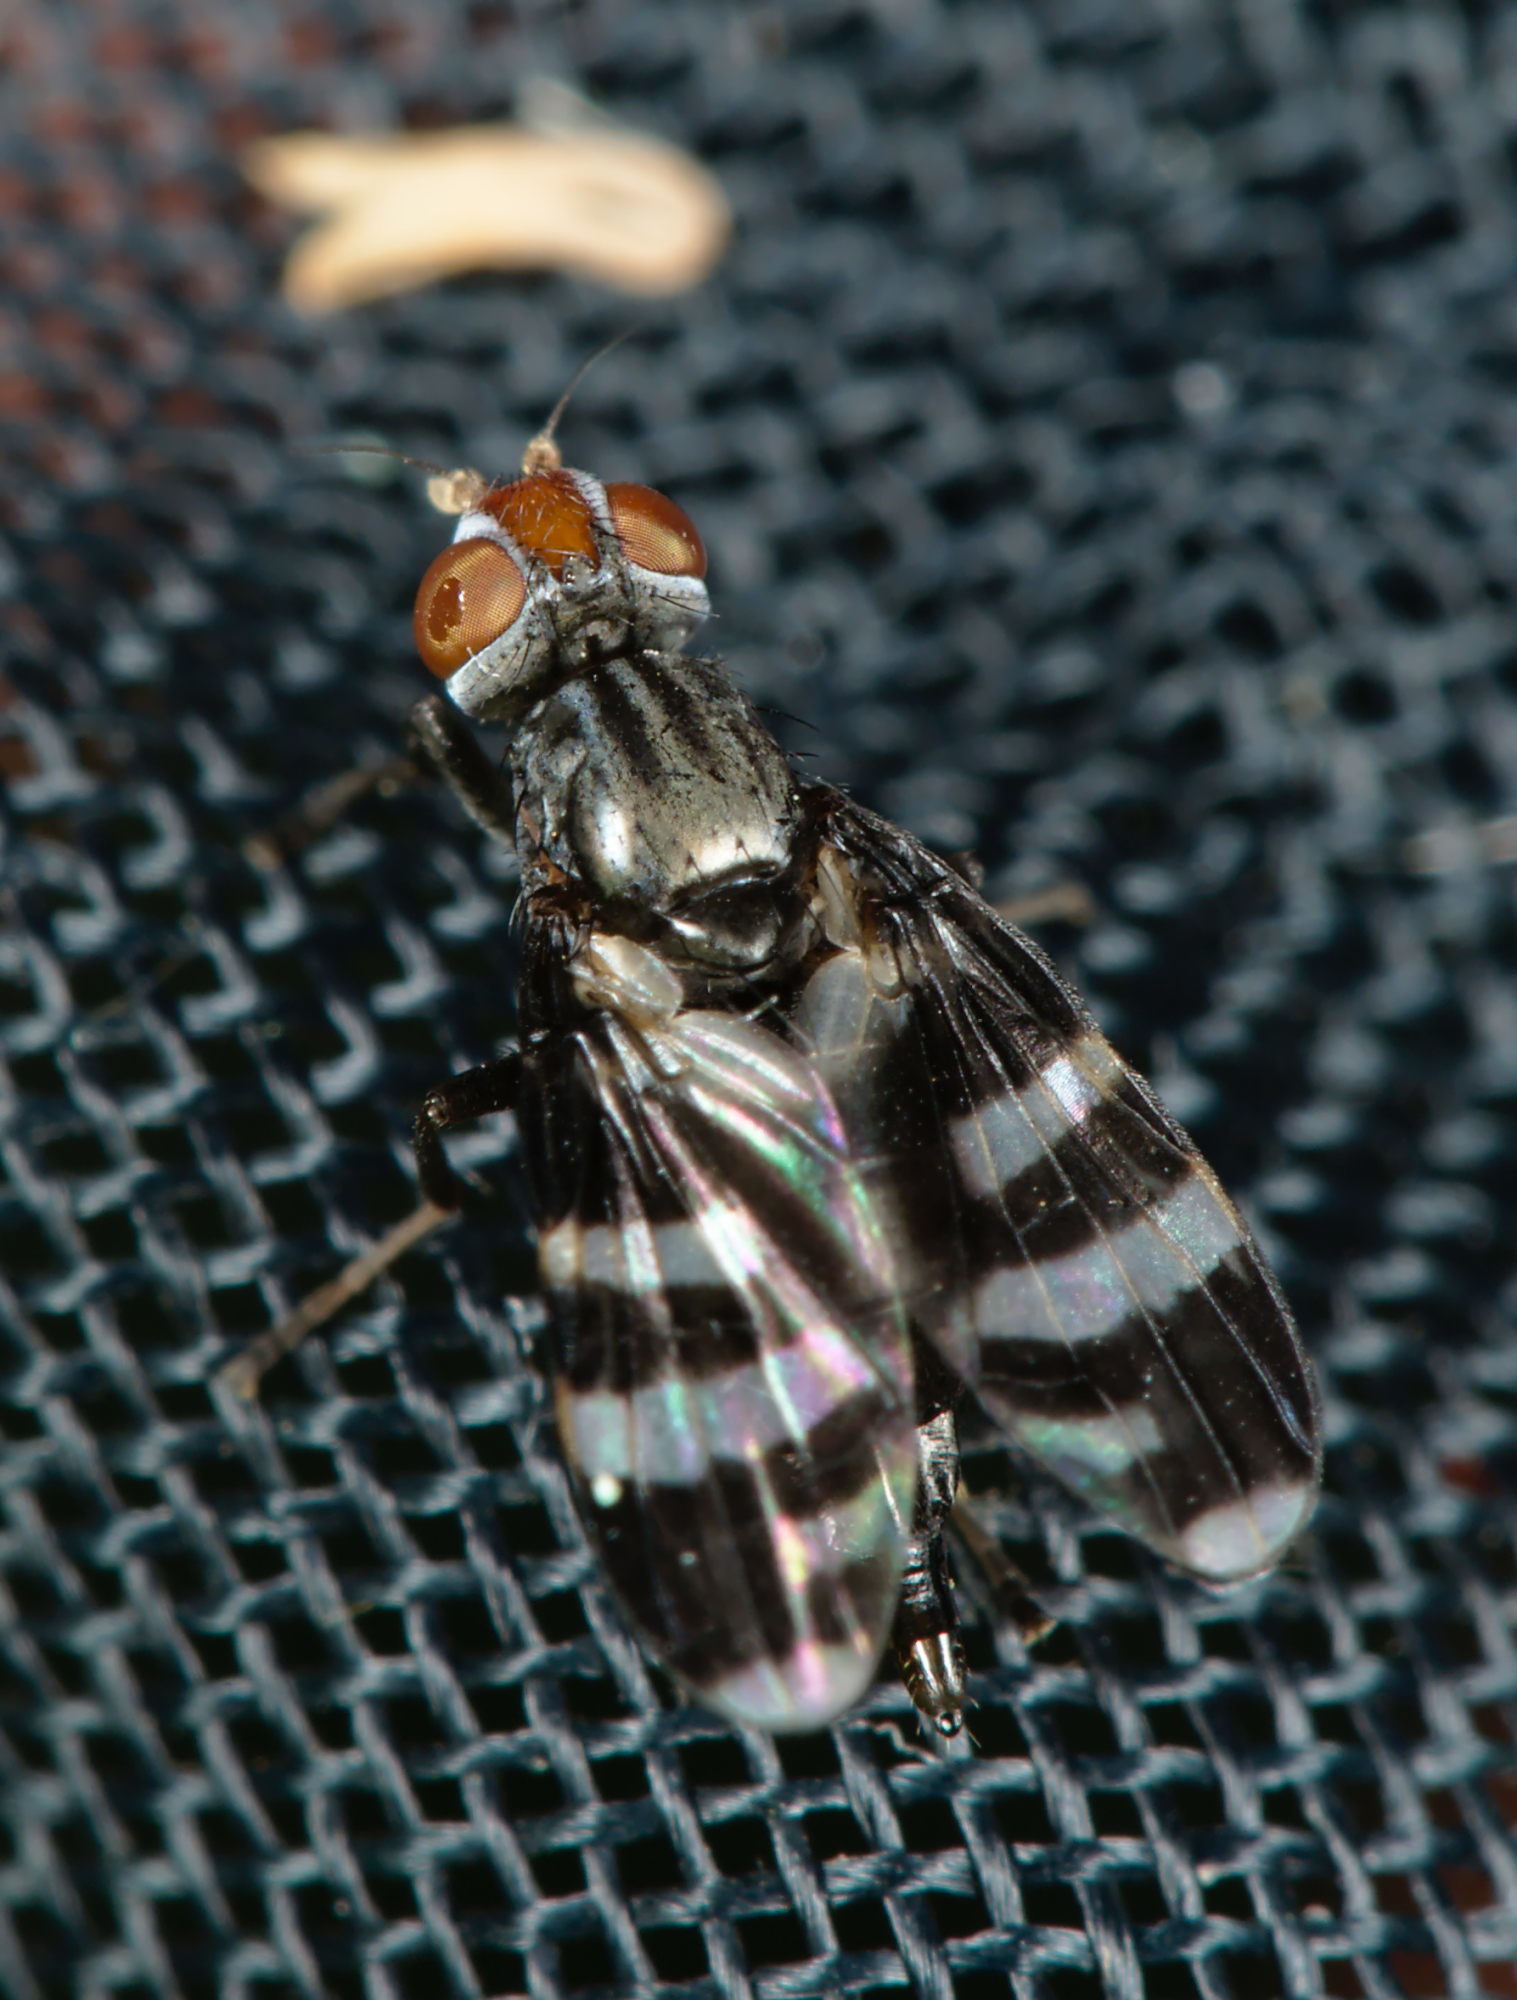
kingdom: Animalia
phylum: Arthropoda
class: Insecta
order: Diptera
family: Ulidiidae
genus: Herina
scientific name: Herina frondescentiae
